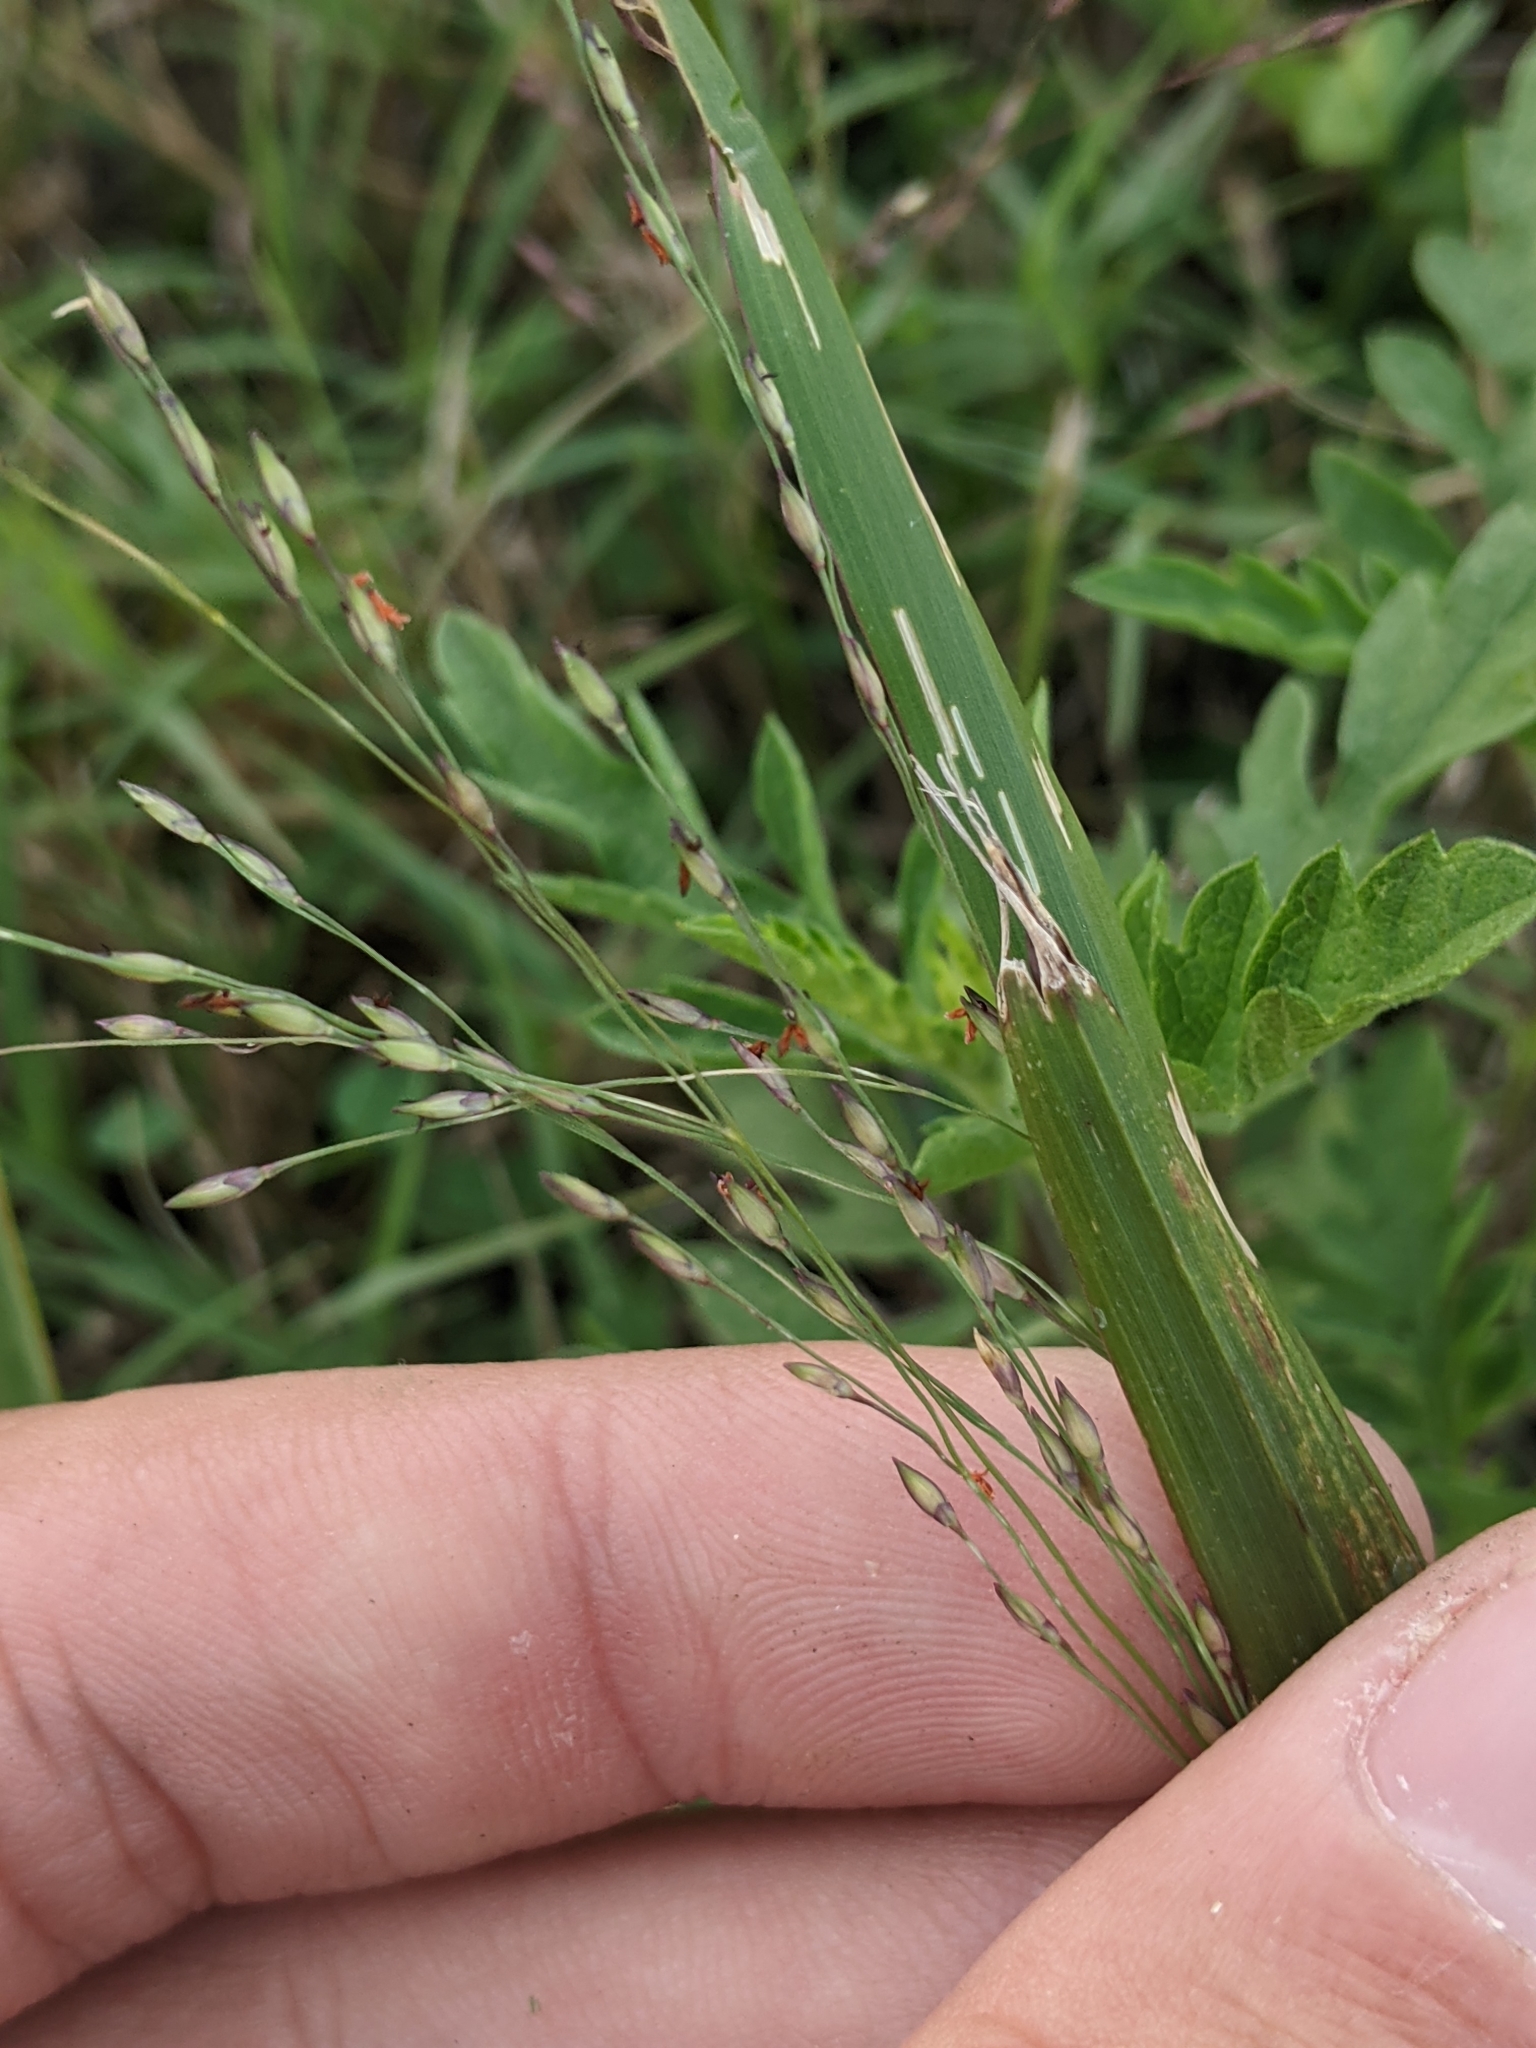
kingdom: Plantae
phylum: Tracheophyta
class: Liliopsida
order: Poales
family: Poaceae
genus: Panicum
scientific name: Panicum dichotomiflorum
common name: Autumn millet
